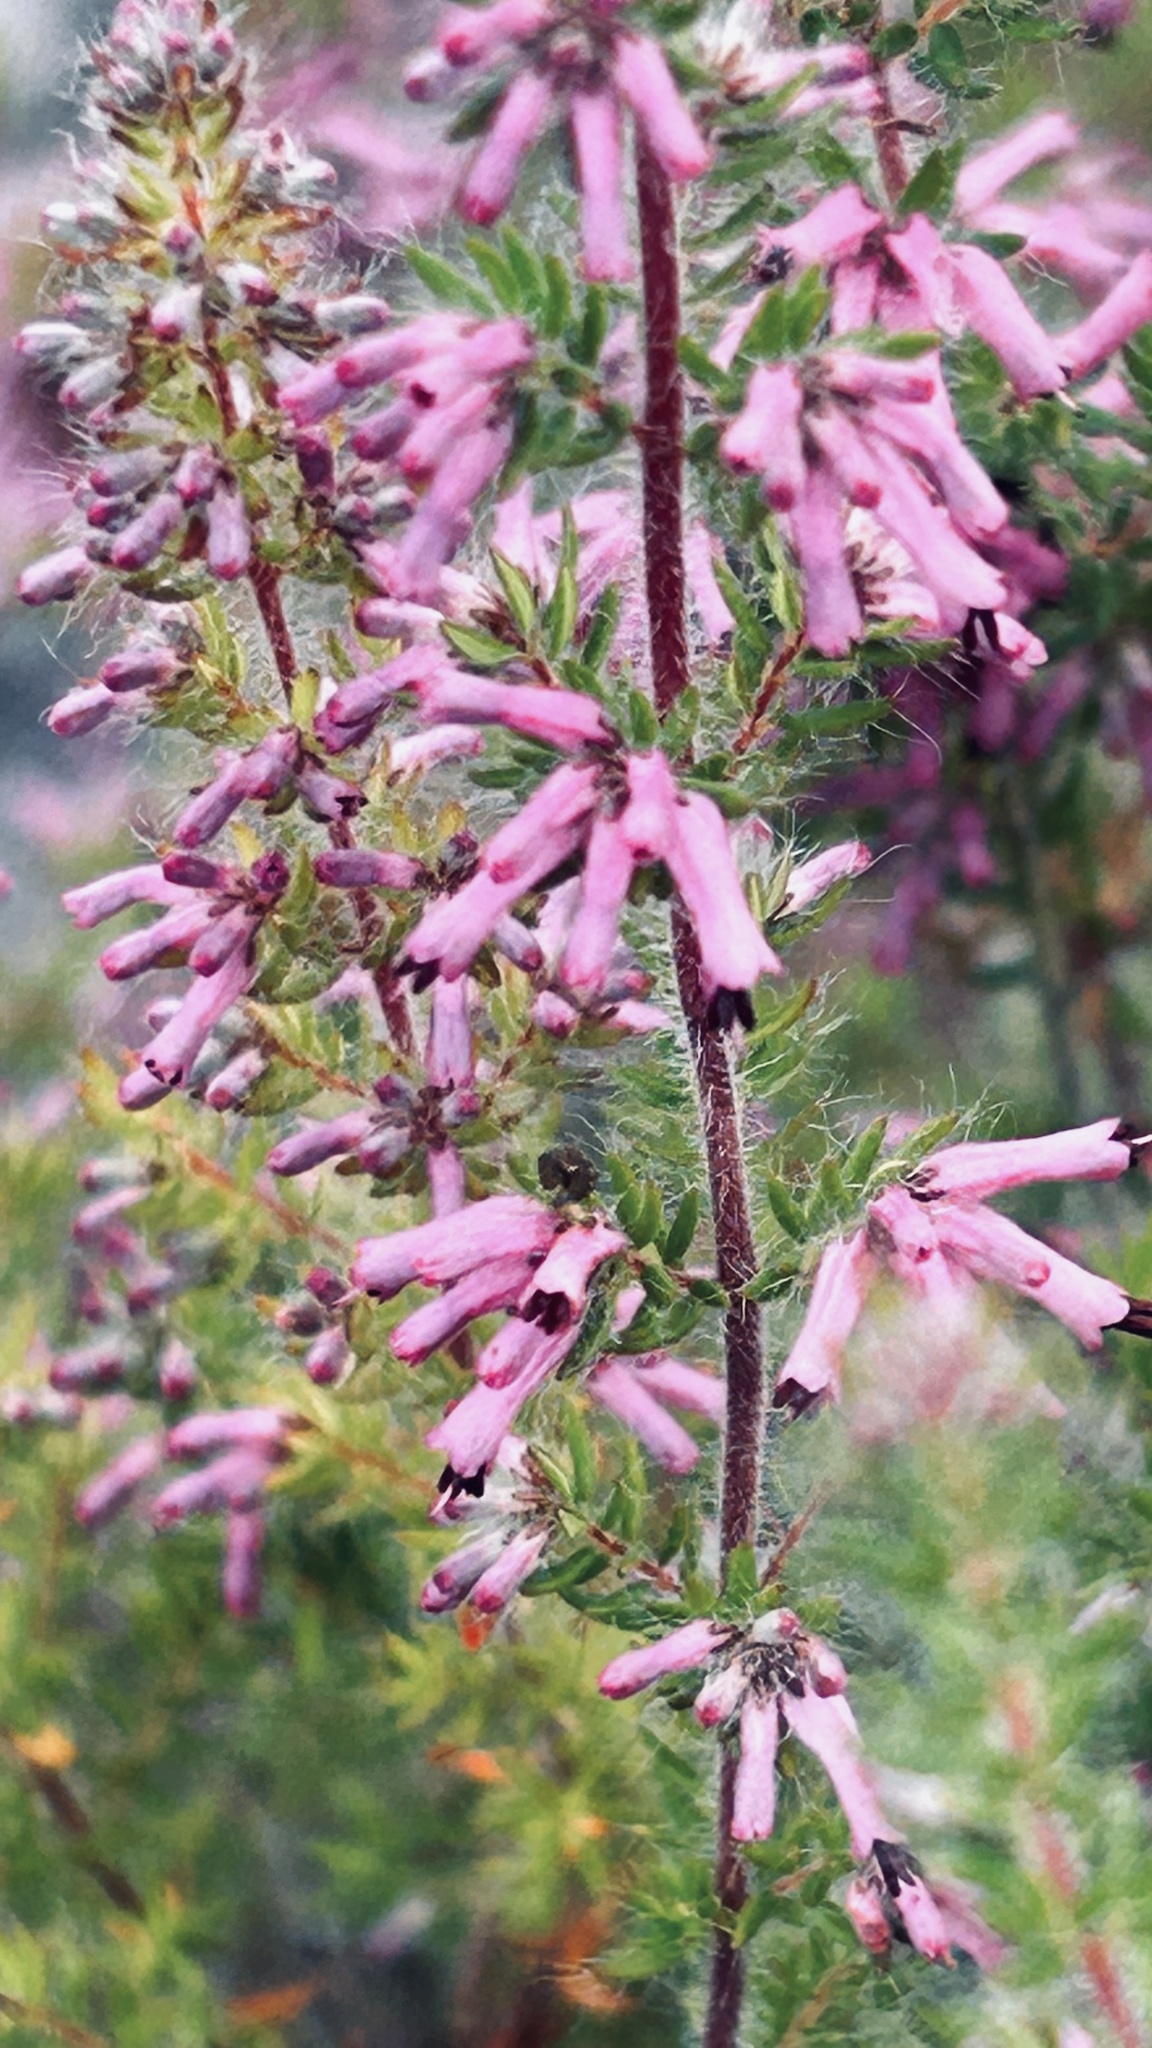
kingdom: Plantae
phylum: Tracheophyta
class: Magnoliopsida
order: Ericales
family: Ericaceae
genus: Erica
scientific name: Erica longimontana
